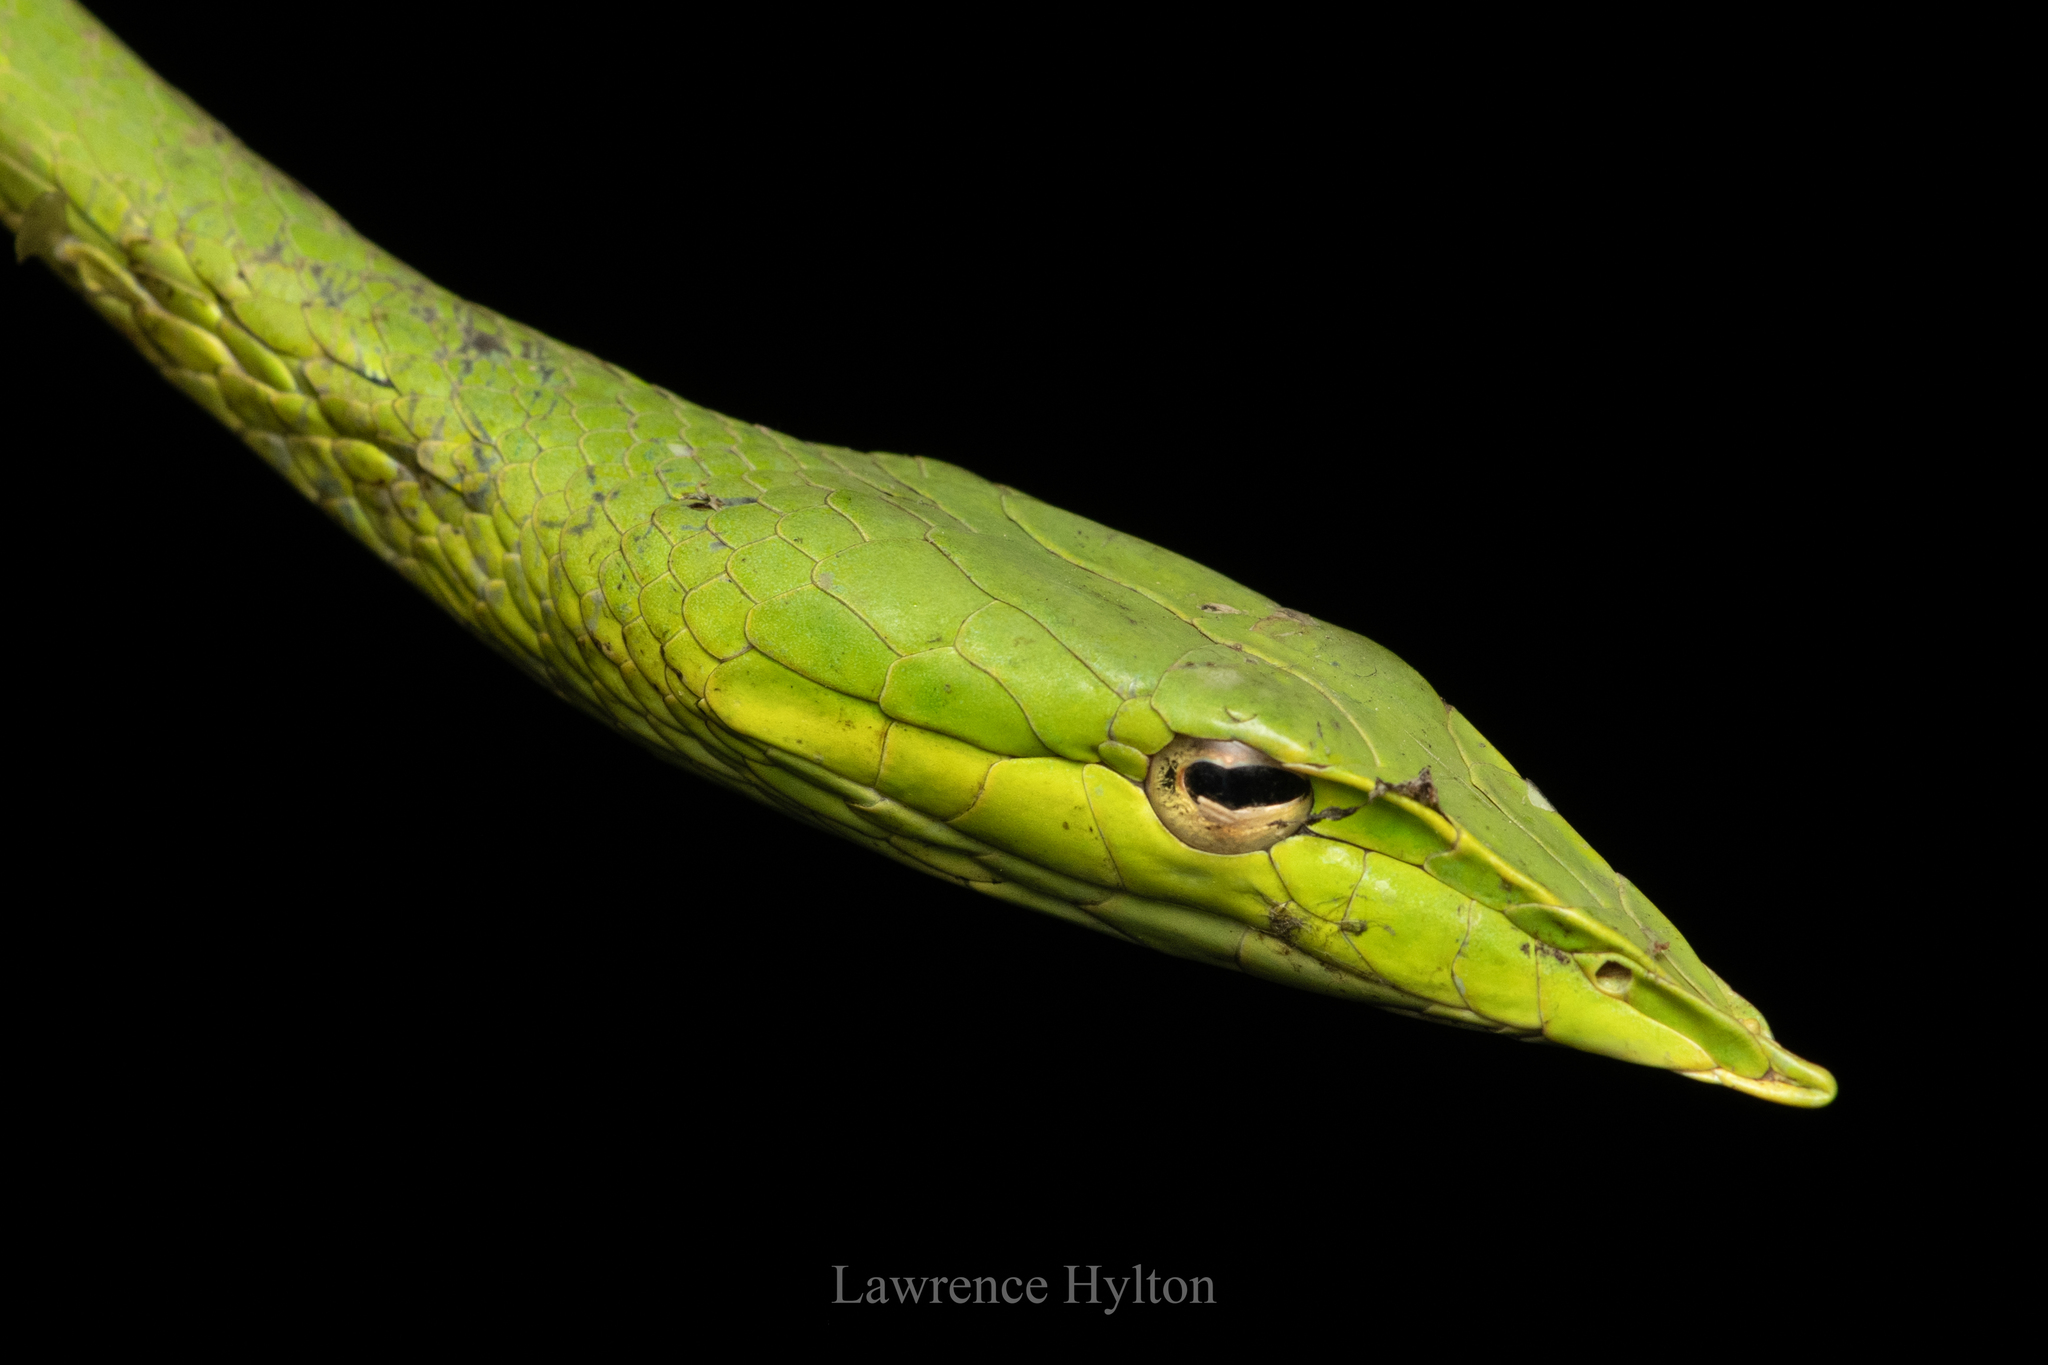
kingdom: Animalia
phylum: Chordata
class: Squamata
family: Colubridae
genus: Ahaetulla
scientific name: Ahaetulla
